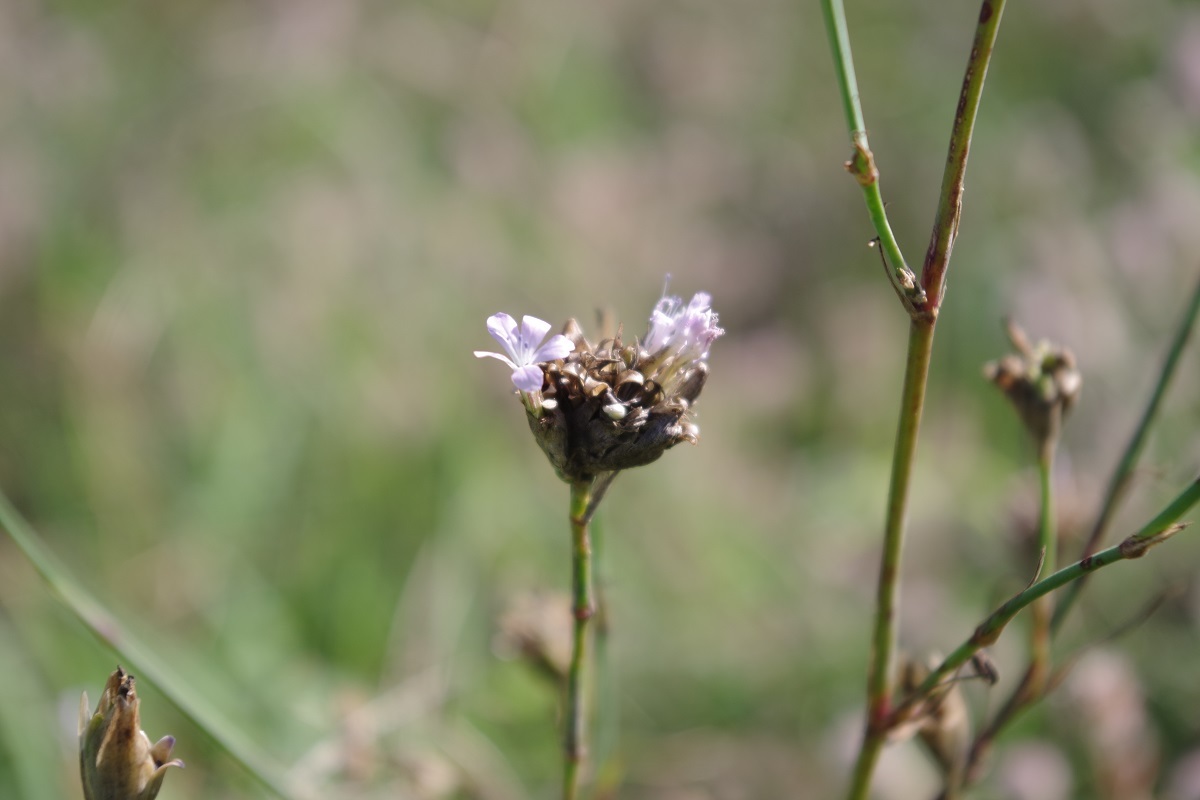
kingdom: Plantae
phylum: Tracheophyta
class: Magnoliopsida
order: Caryophyllales
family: Caryophyllaceae
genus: Petrorhagia
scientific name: Petrorhagia prolifera
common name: Proliferous pink
